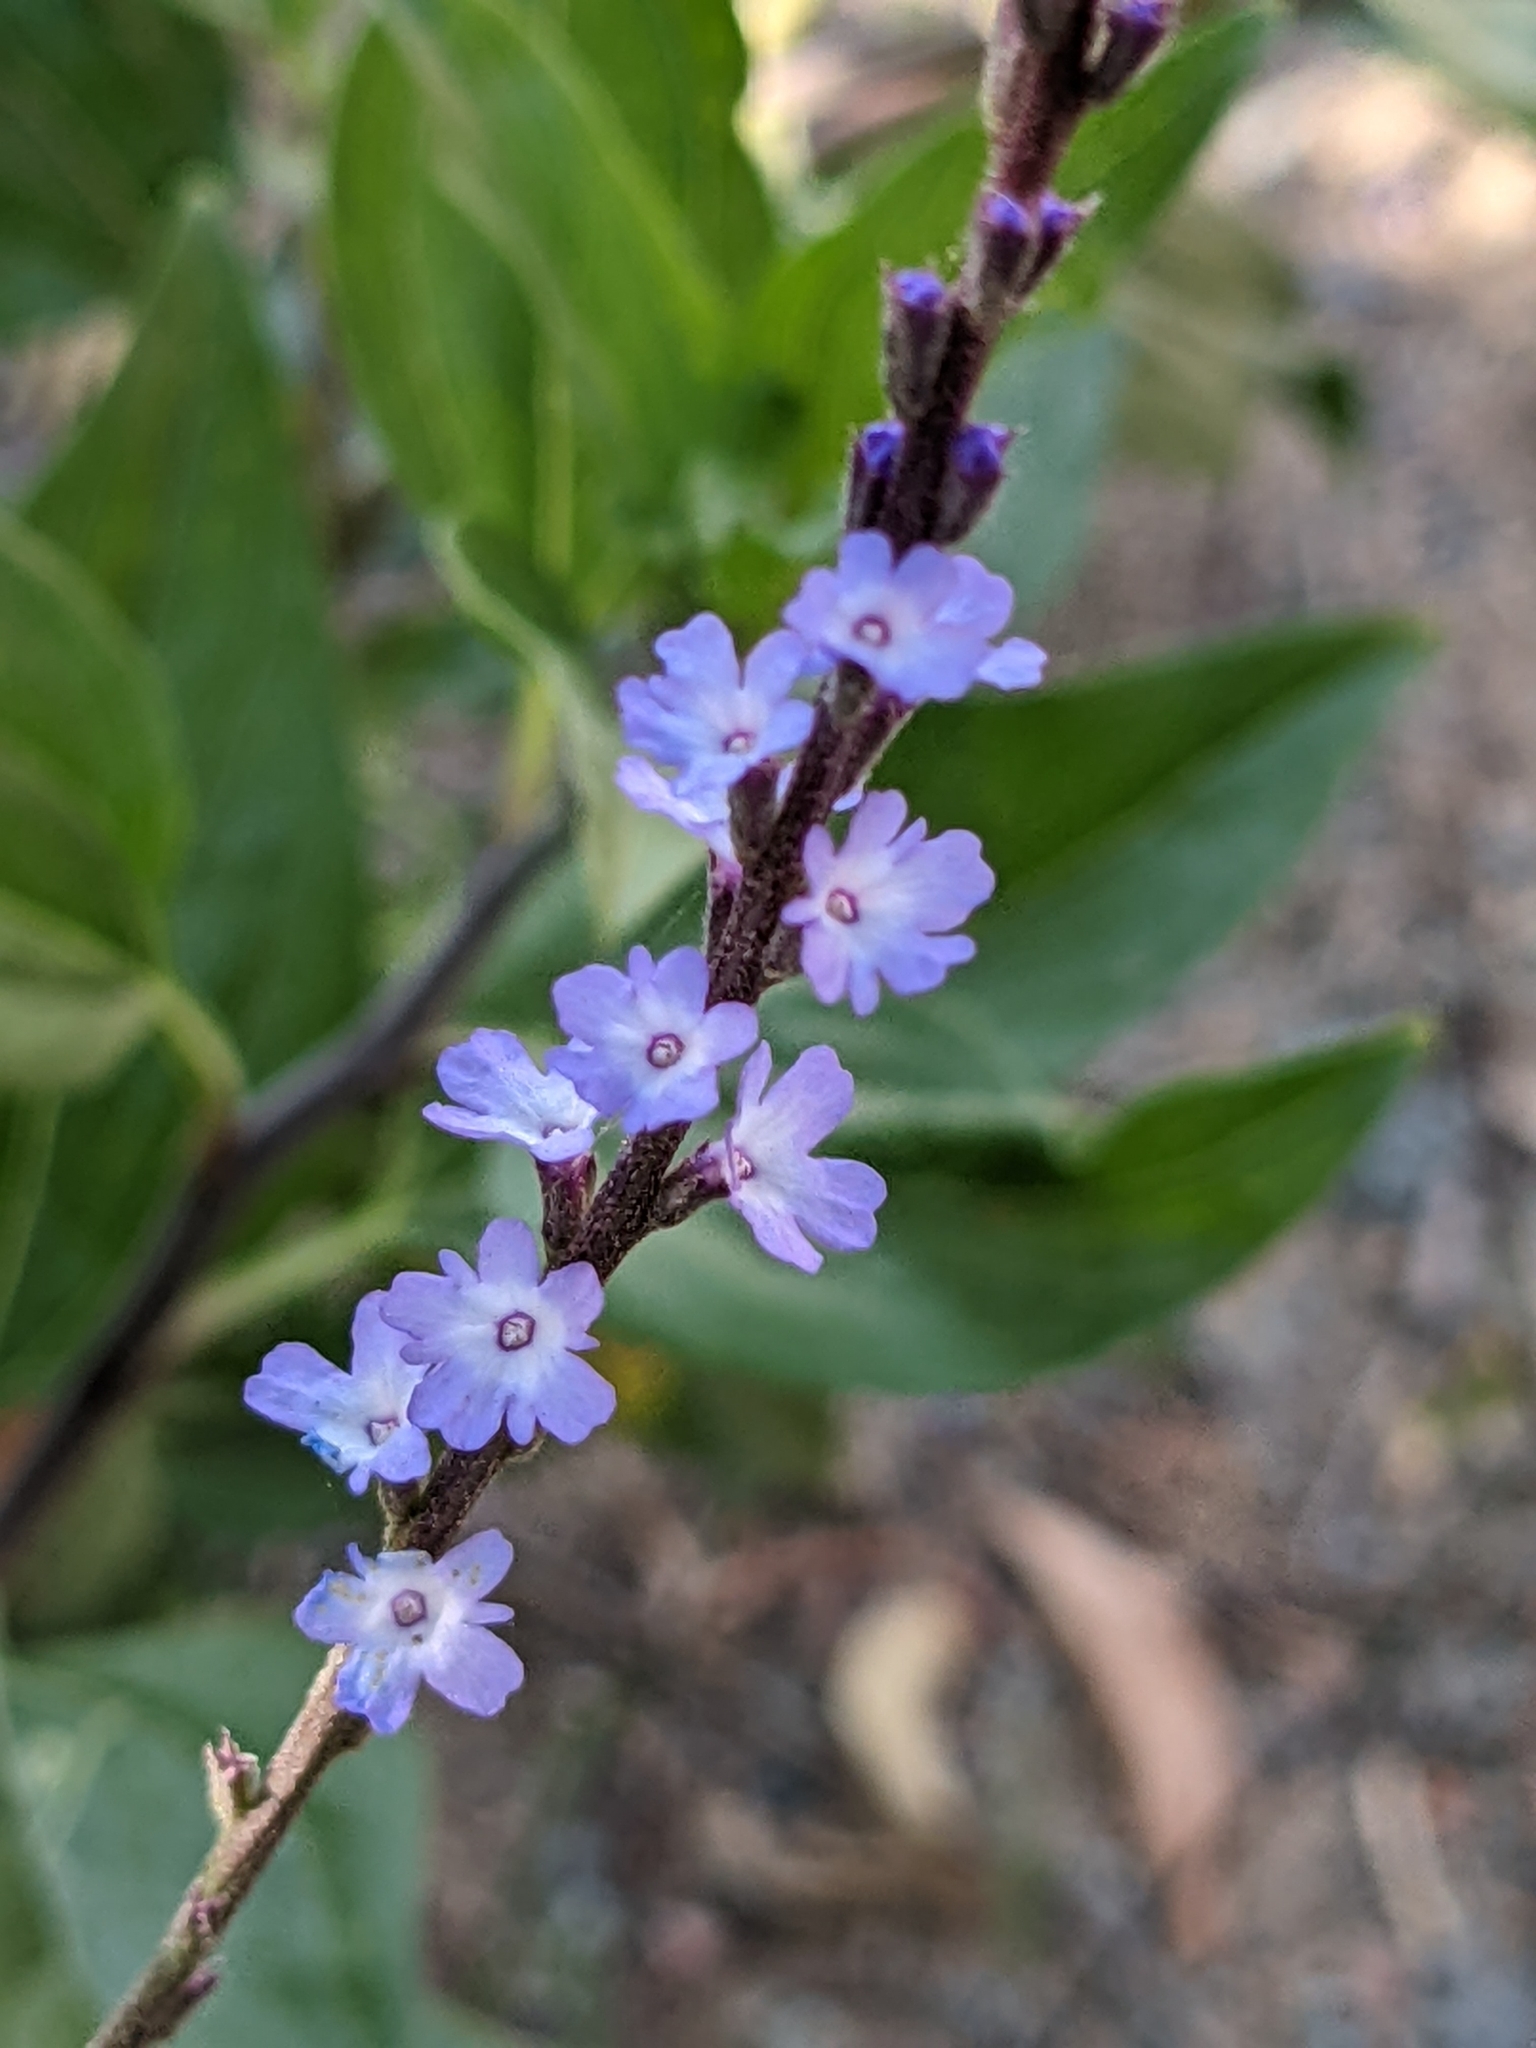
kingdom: Plantae
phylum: Tracheophyta
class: Magnoliopsida
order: Lamiales
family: Verbenaceae
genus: Verbena
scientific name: Verbena menthifolia
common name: Mint-leaf vervain
